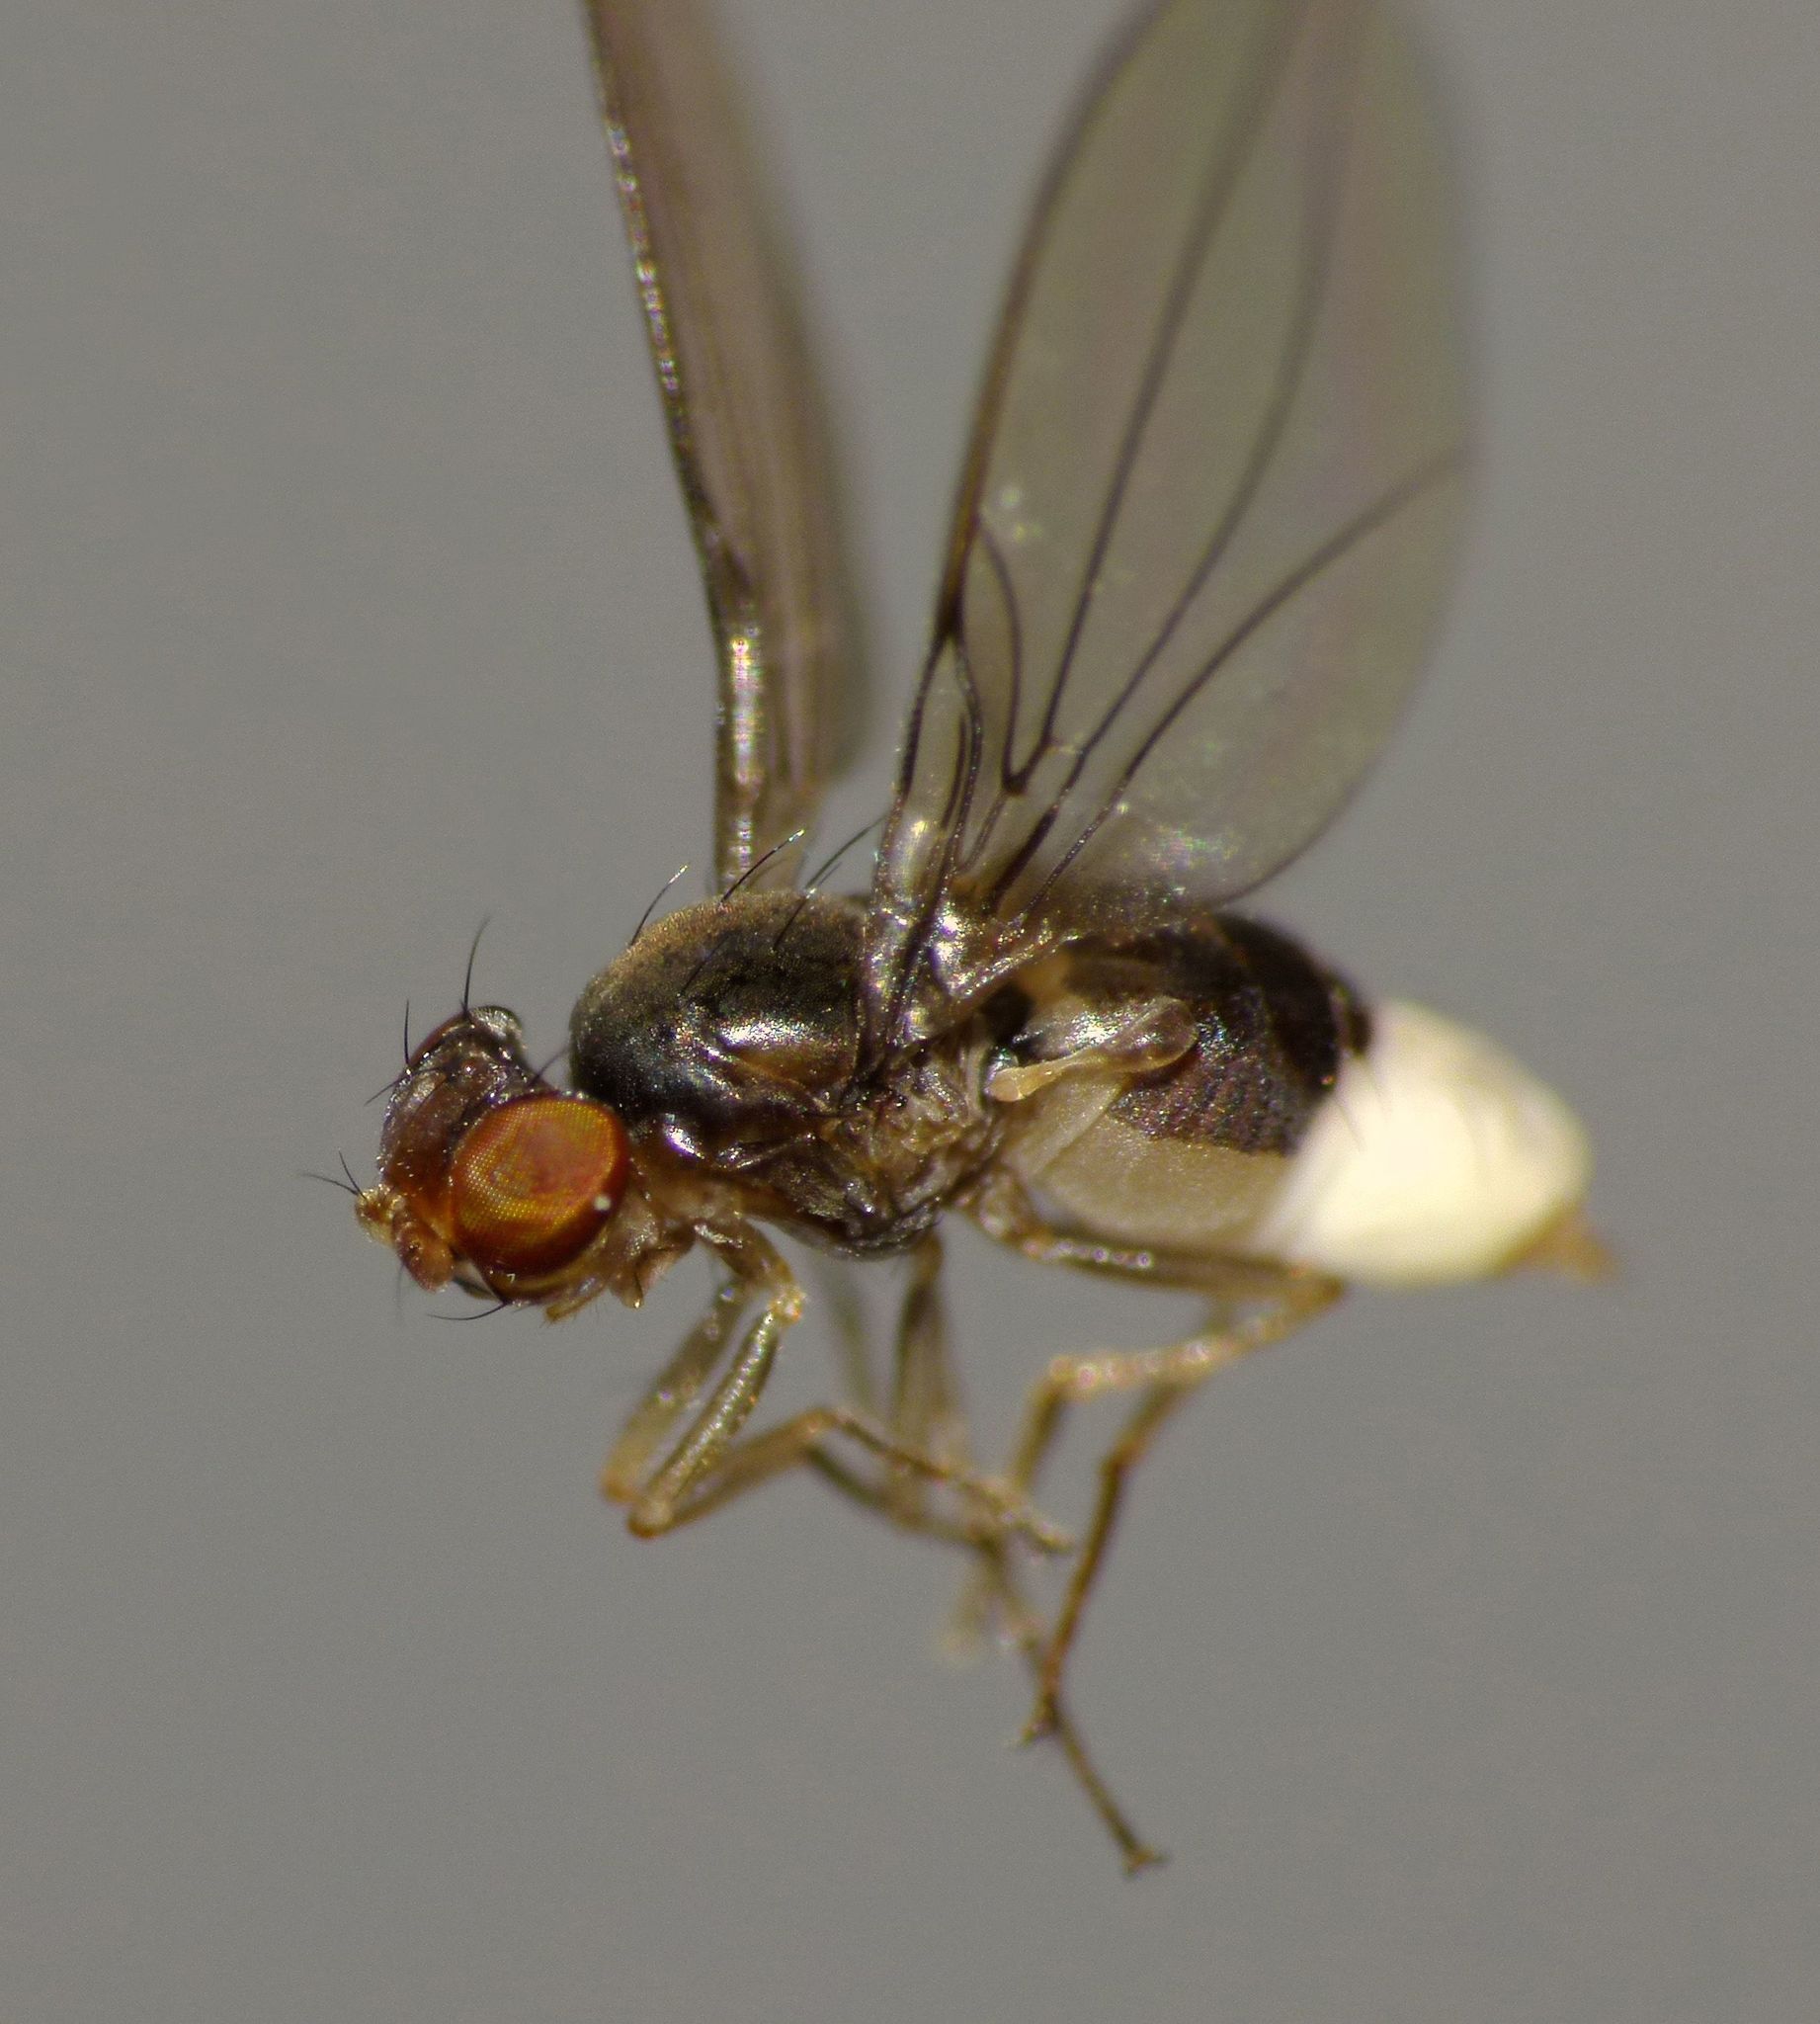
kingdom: Animalia
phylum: Arthropoda
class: Insecta
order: Diptera
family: Asteiidae
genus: Asteia
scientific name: Asteia levis
